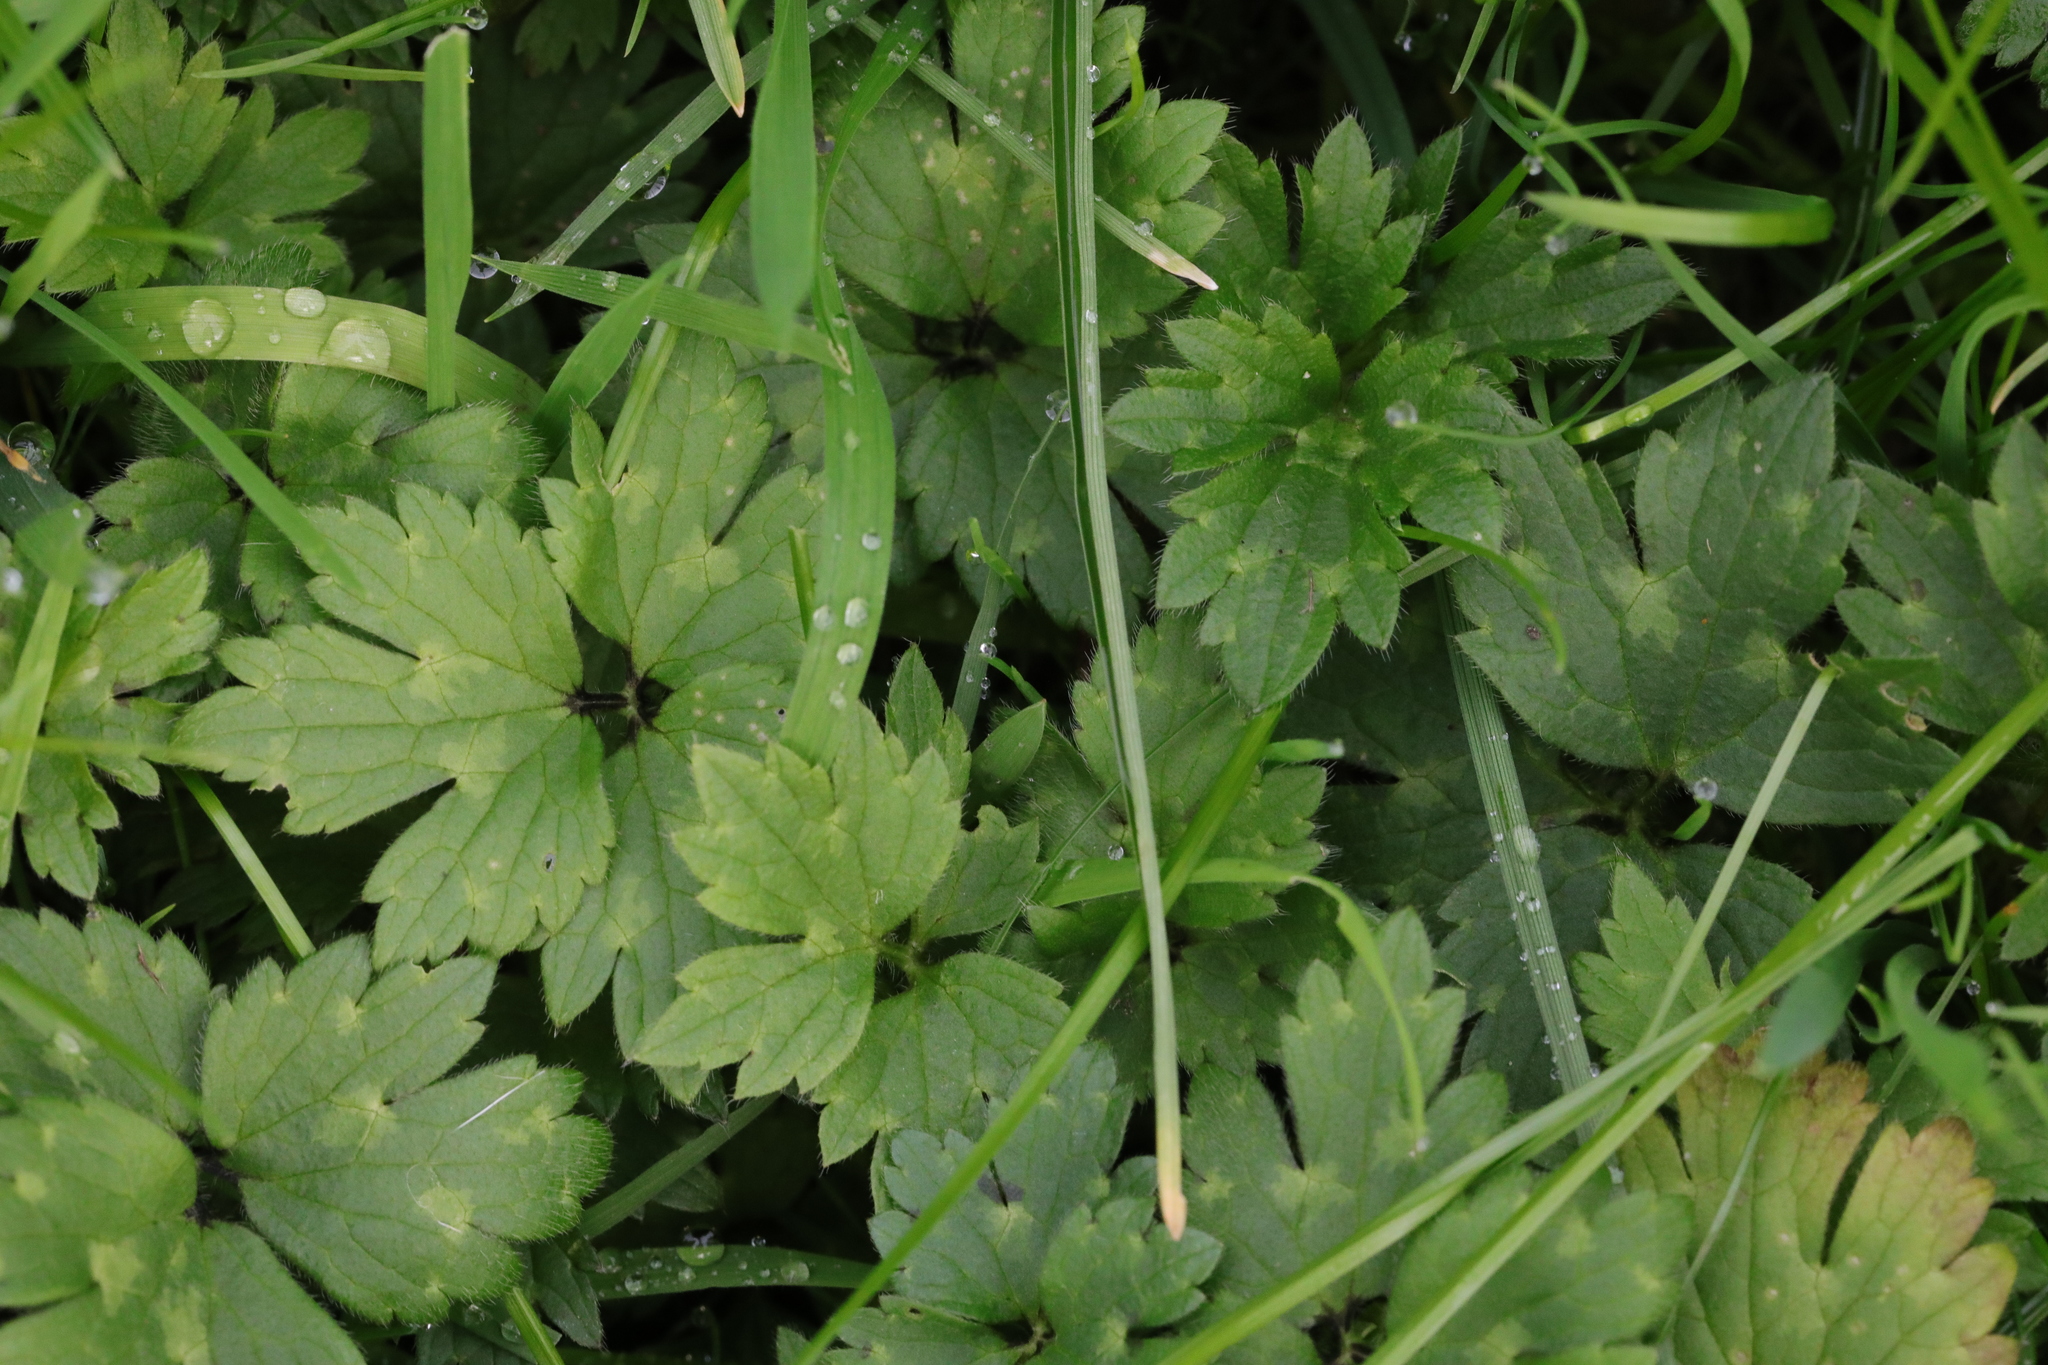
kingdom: Plantae
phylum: Tracheophyta
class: Magnoliopsida
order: Ranunculales
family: Ranunculaceae
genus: Ranunculus
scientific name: Ranunculus repens
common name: Creeping buttercup
